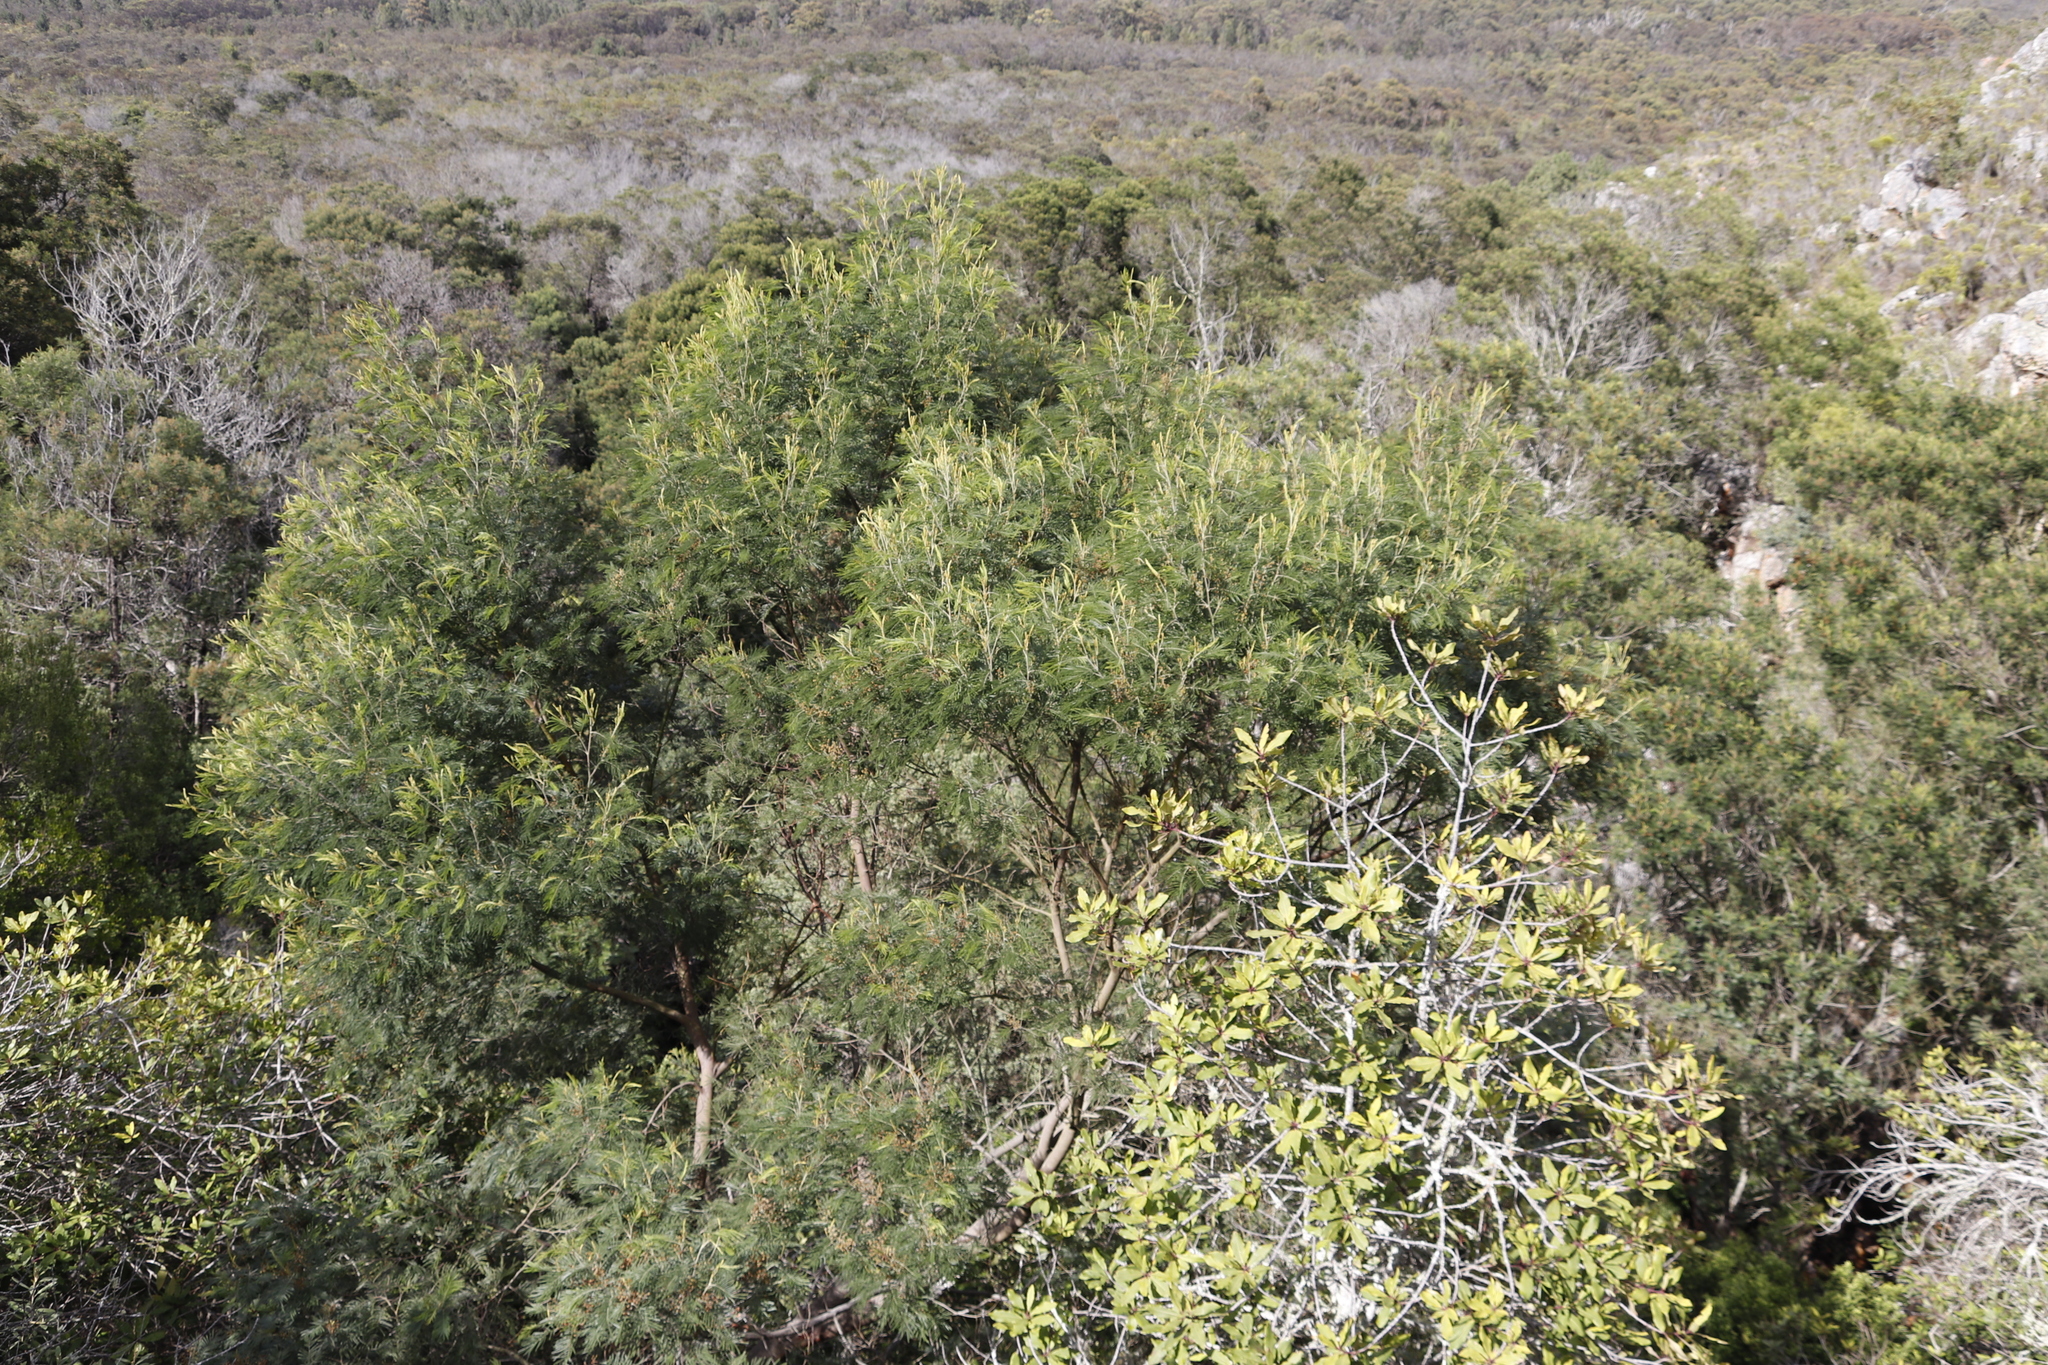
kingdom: Plantae
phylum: Tracheophyta
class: Magnoliopsida
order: Fabales
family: Fabaceae
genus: Acacia
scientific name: Acacia mearnsii
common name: Black wattle
